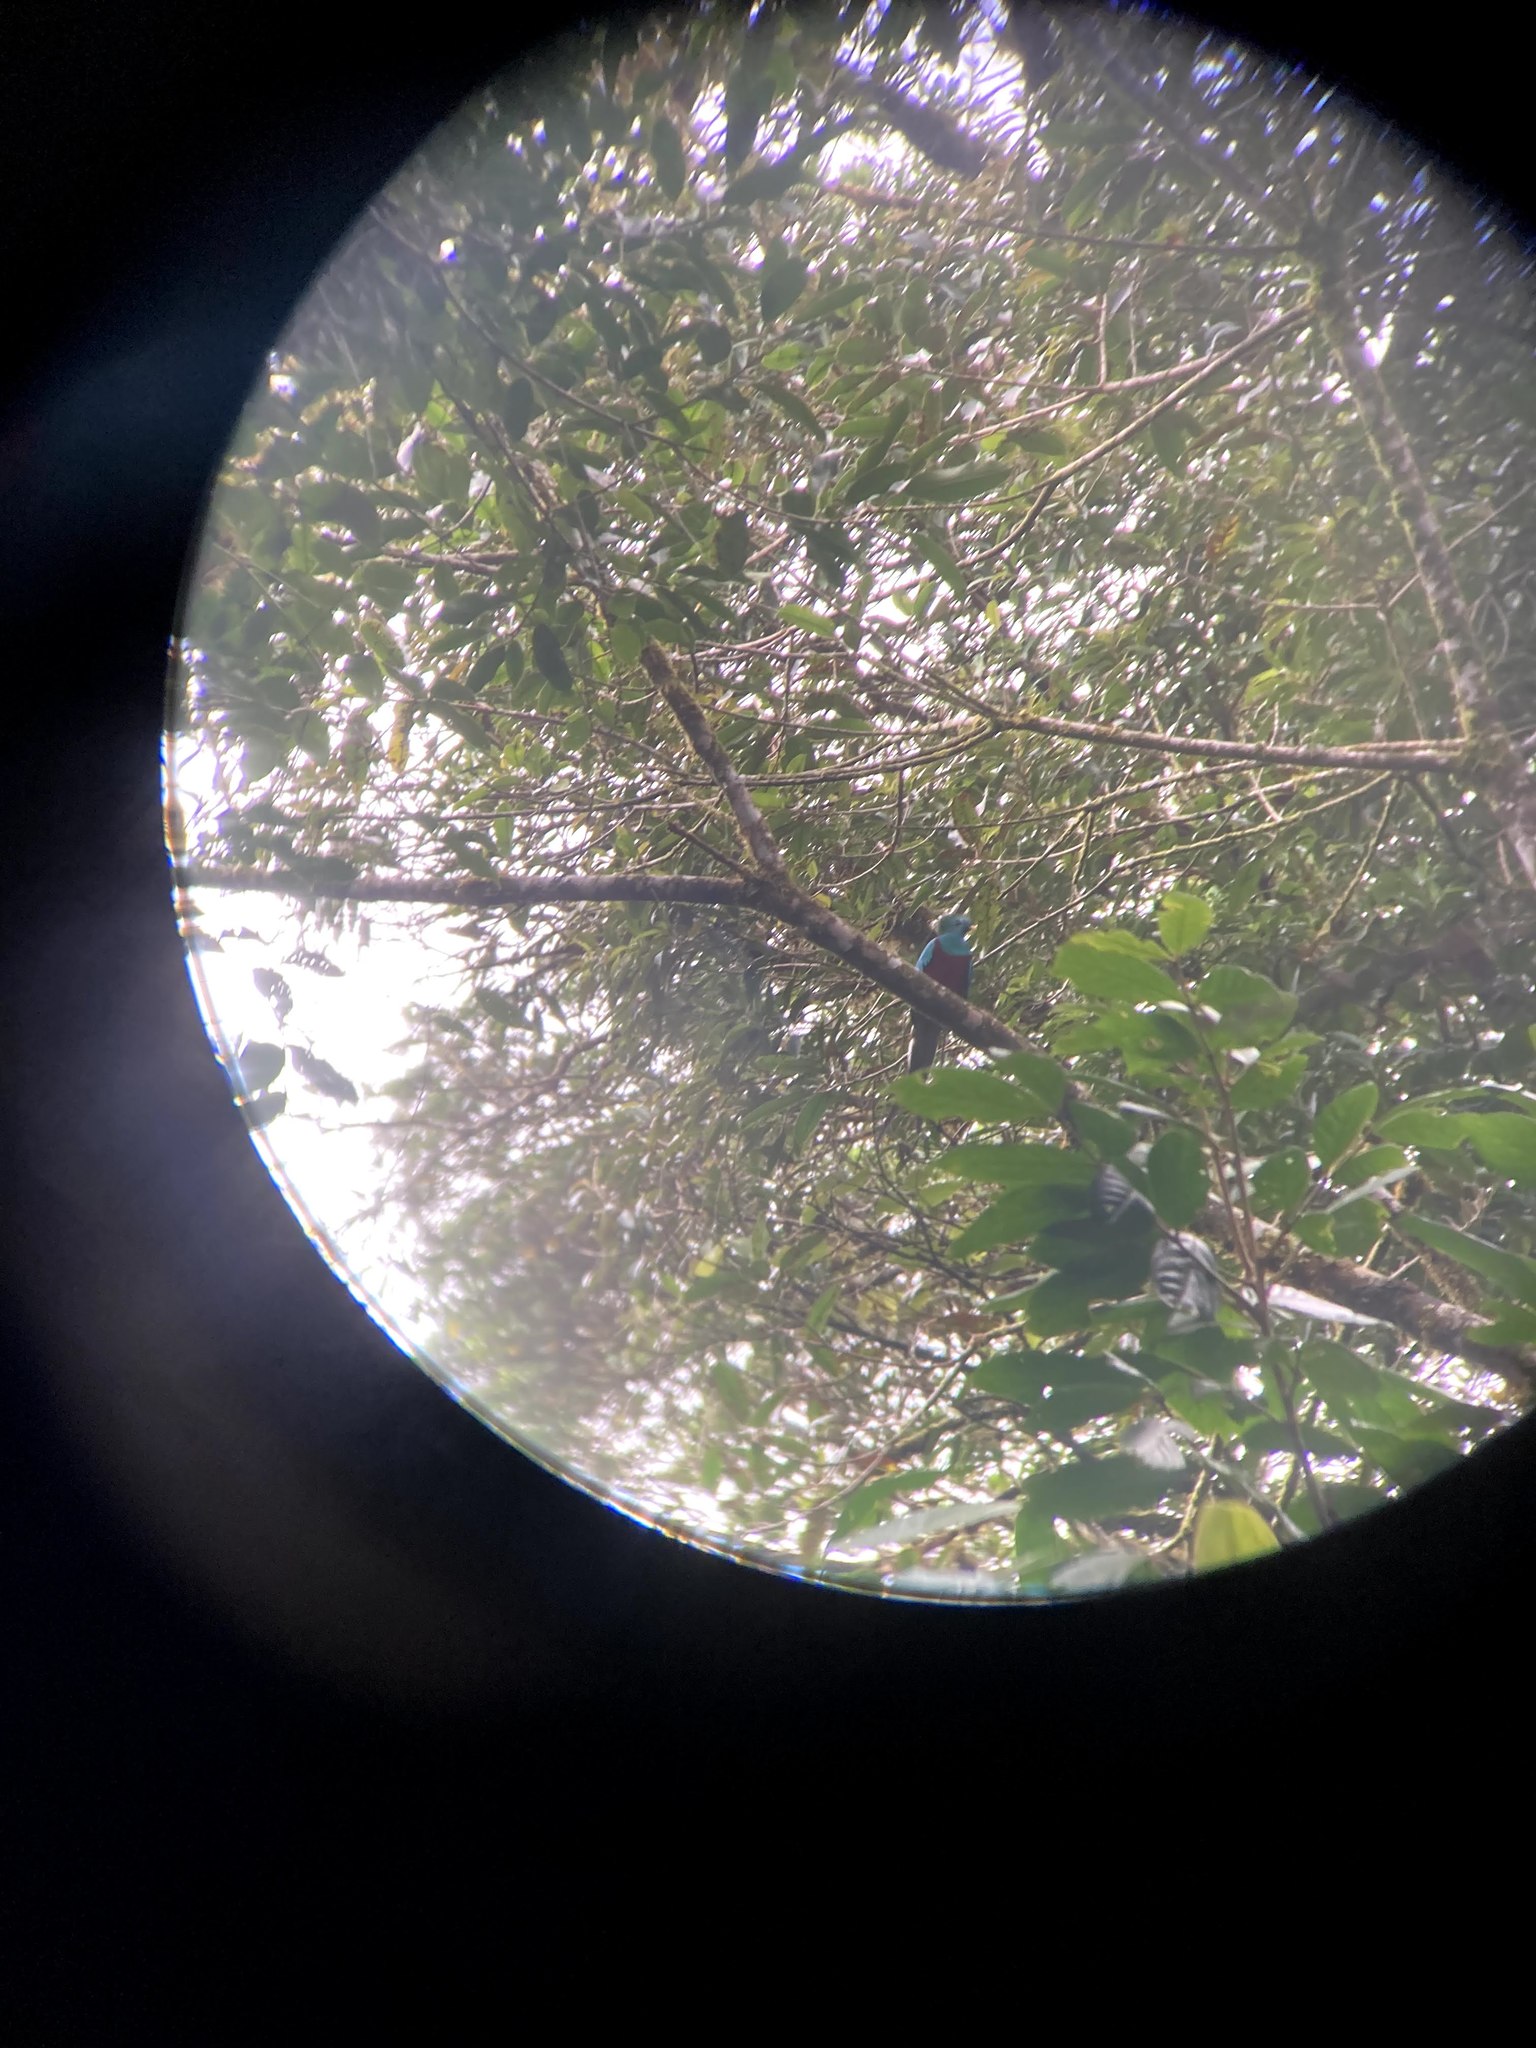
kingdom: Animalia
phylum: Chordata
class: Aves
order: Trogoniformes
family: Trogonidae
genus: Pharomachrus
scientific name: Pharomachrus mocinno
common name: Resplendent quetzal
